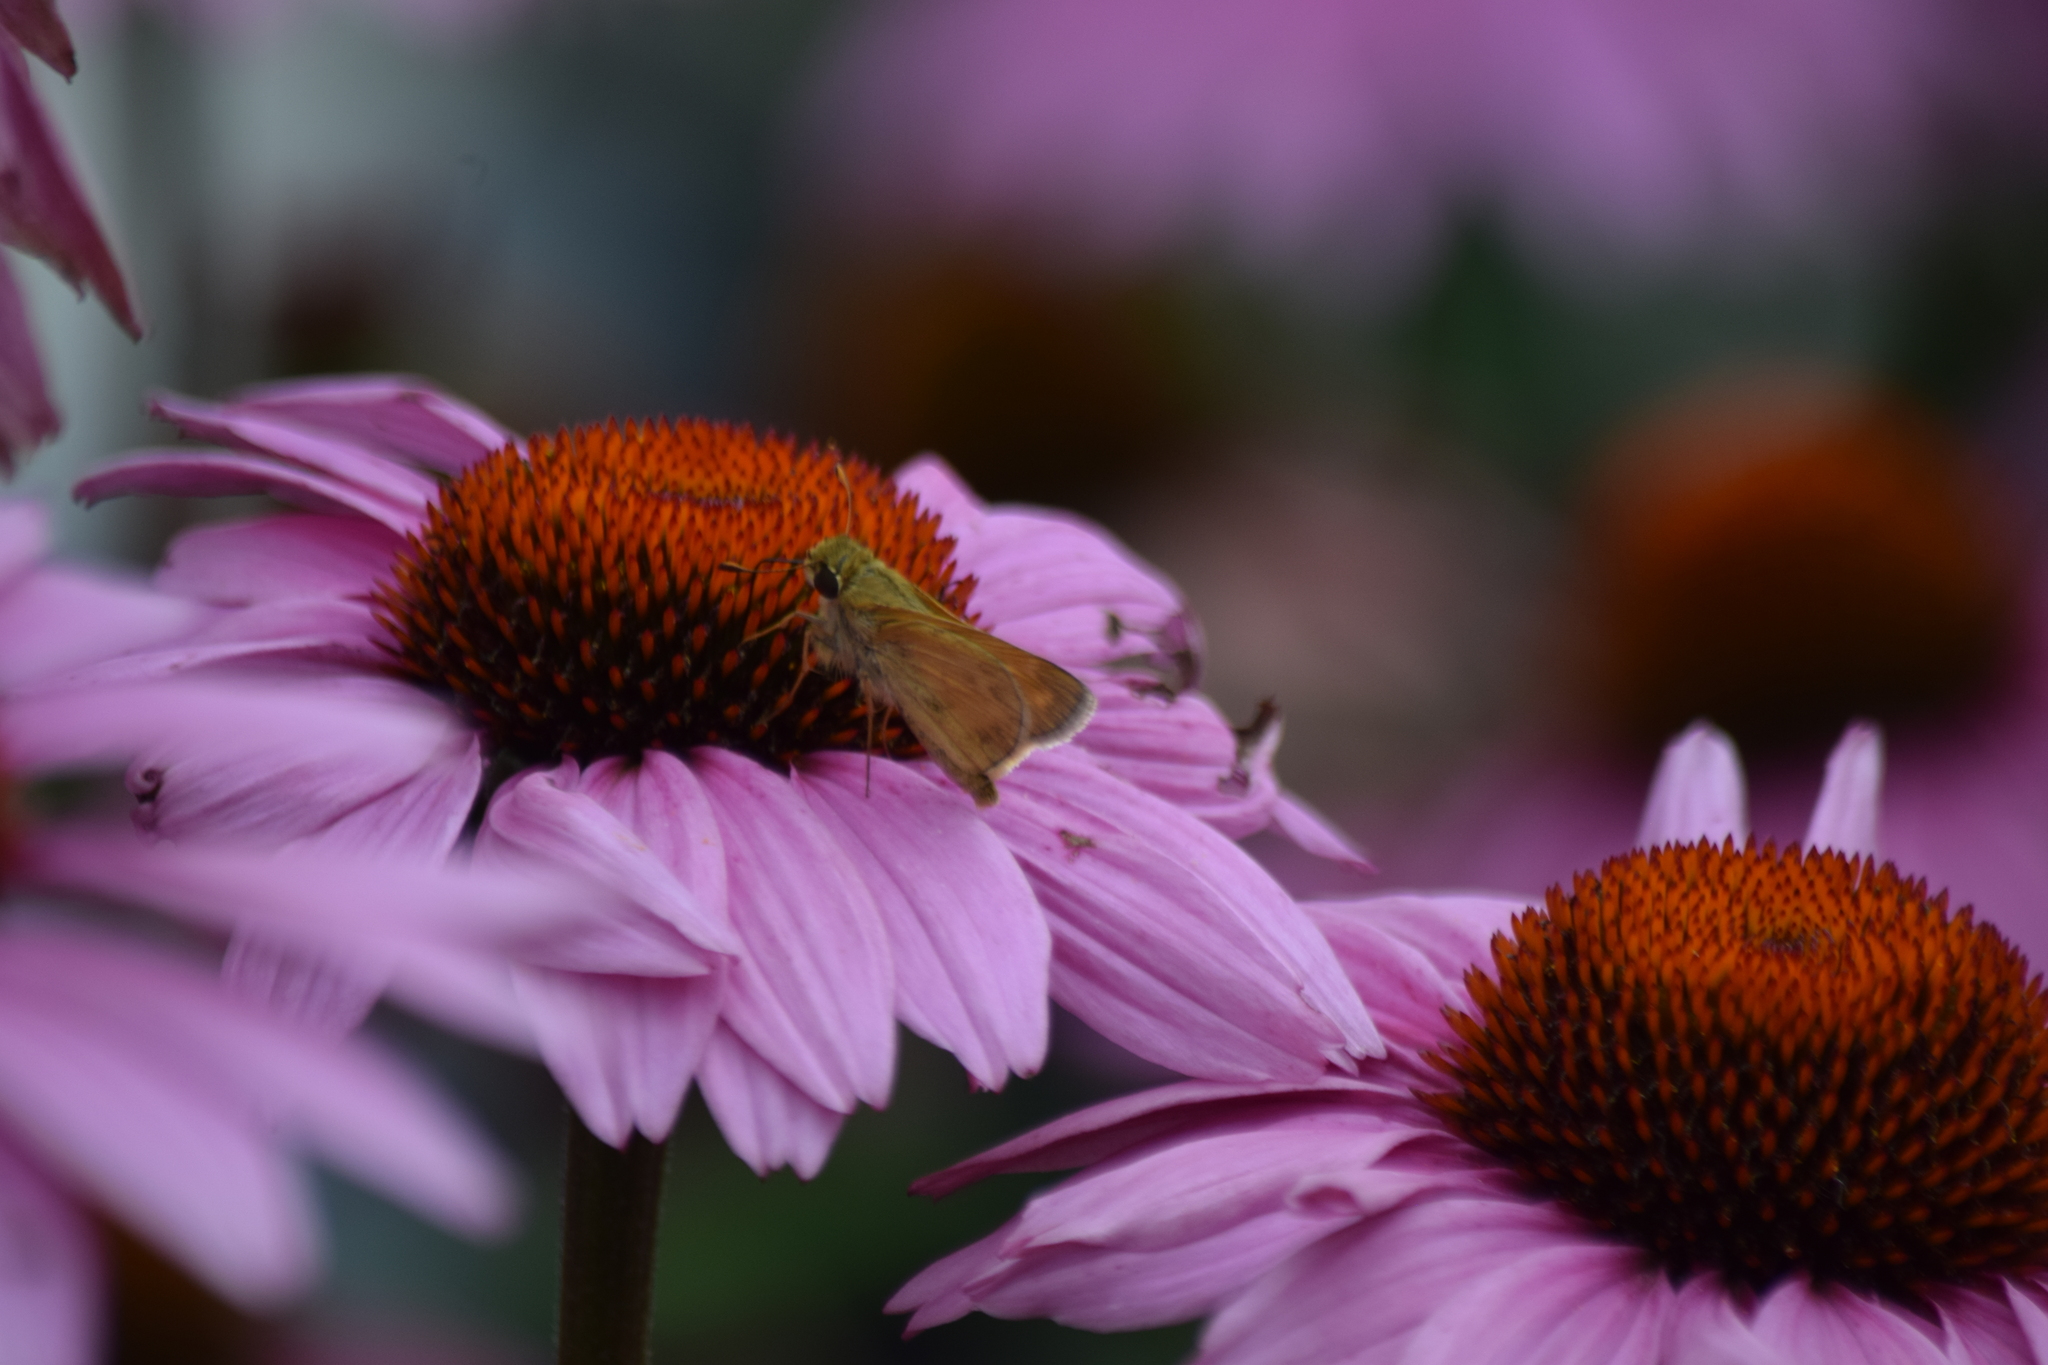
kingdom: Animalia
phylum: Arthropoda
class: Insecta
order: Lepidoptera
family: Hesperiidae
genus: Atalopedes
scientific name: Atalopedes
